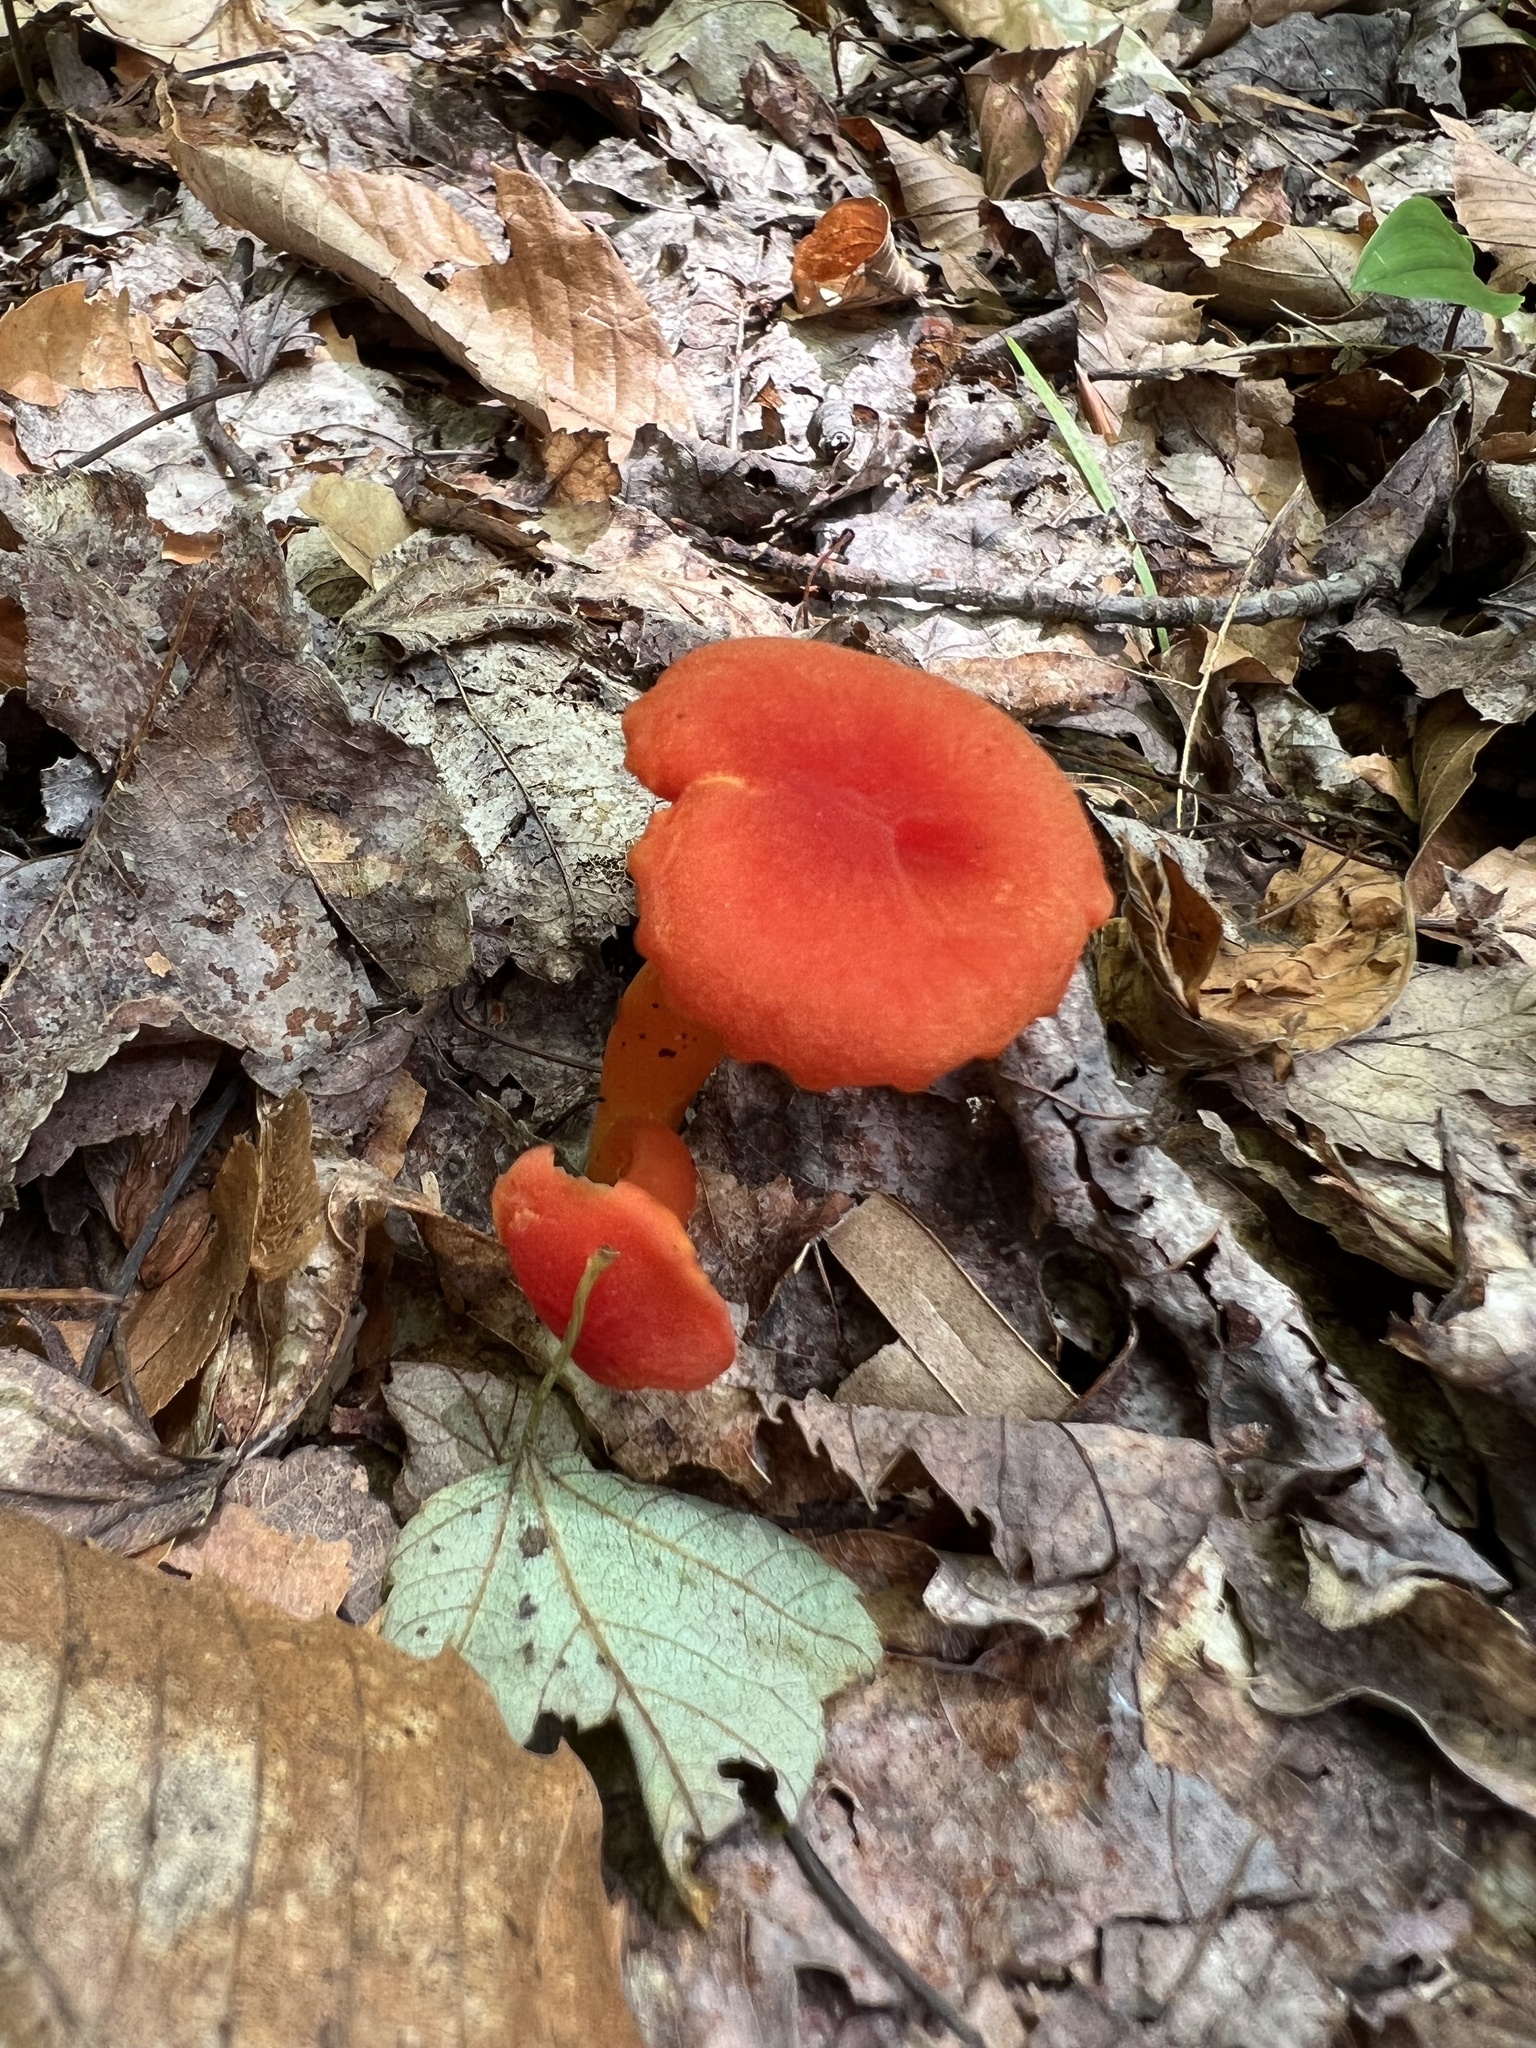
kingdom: Fungi
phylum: Basidiomycota
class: Agaricomycetes
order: Agaricales
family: Hygrophoraceae
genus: Hygrocybe
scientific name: Hygrocybe miniata
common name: Vermilion waxcap
